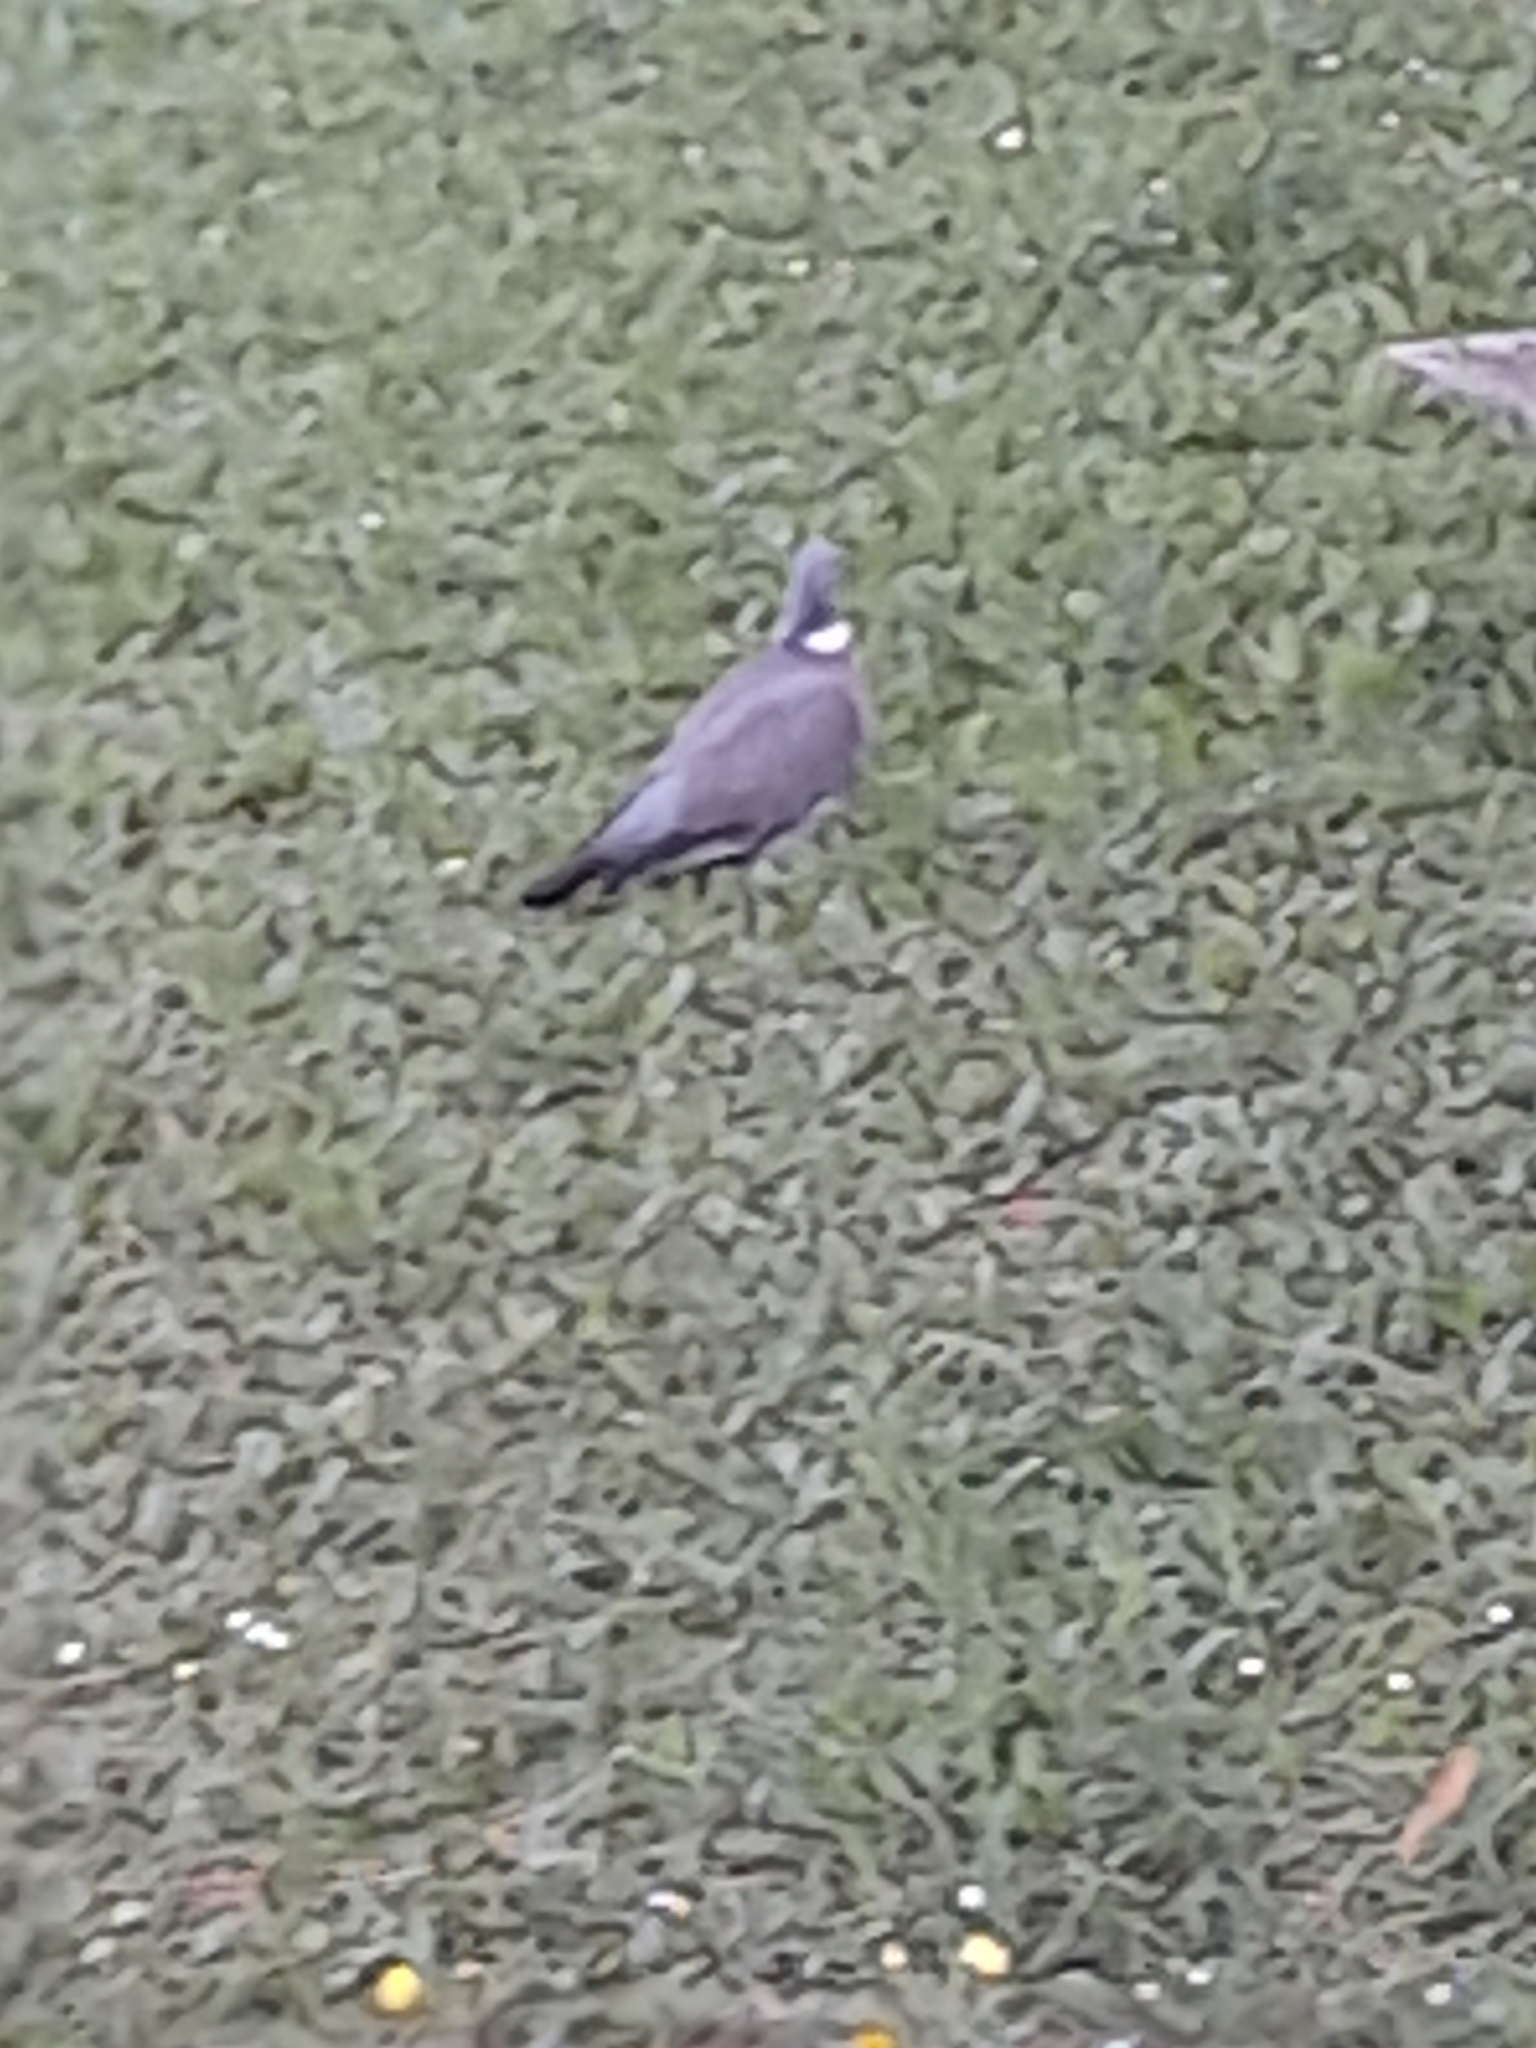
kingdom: Animalia
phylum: Chordata
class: Aves
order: Columbiformes
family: Columbidae
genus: Columba
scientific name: Columba palumbus
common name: Common wood pigeon
